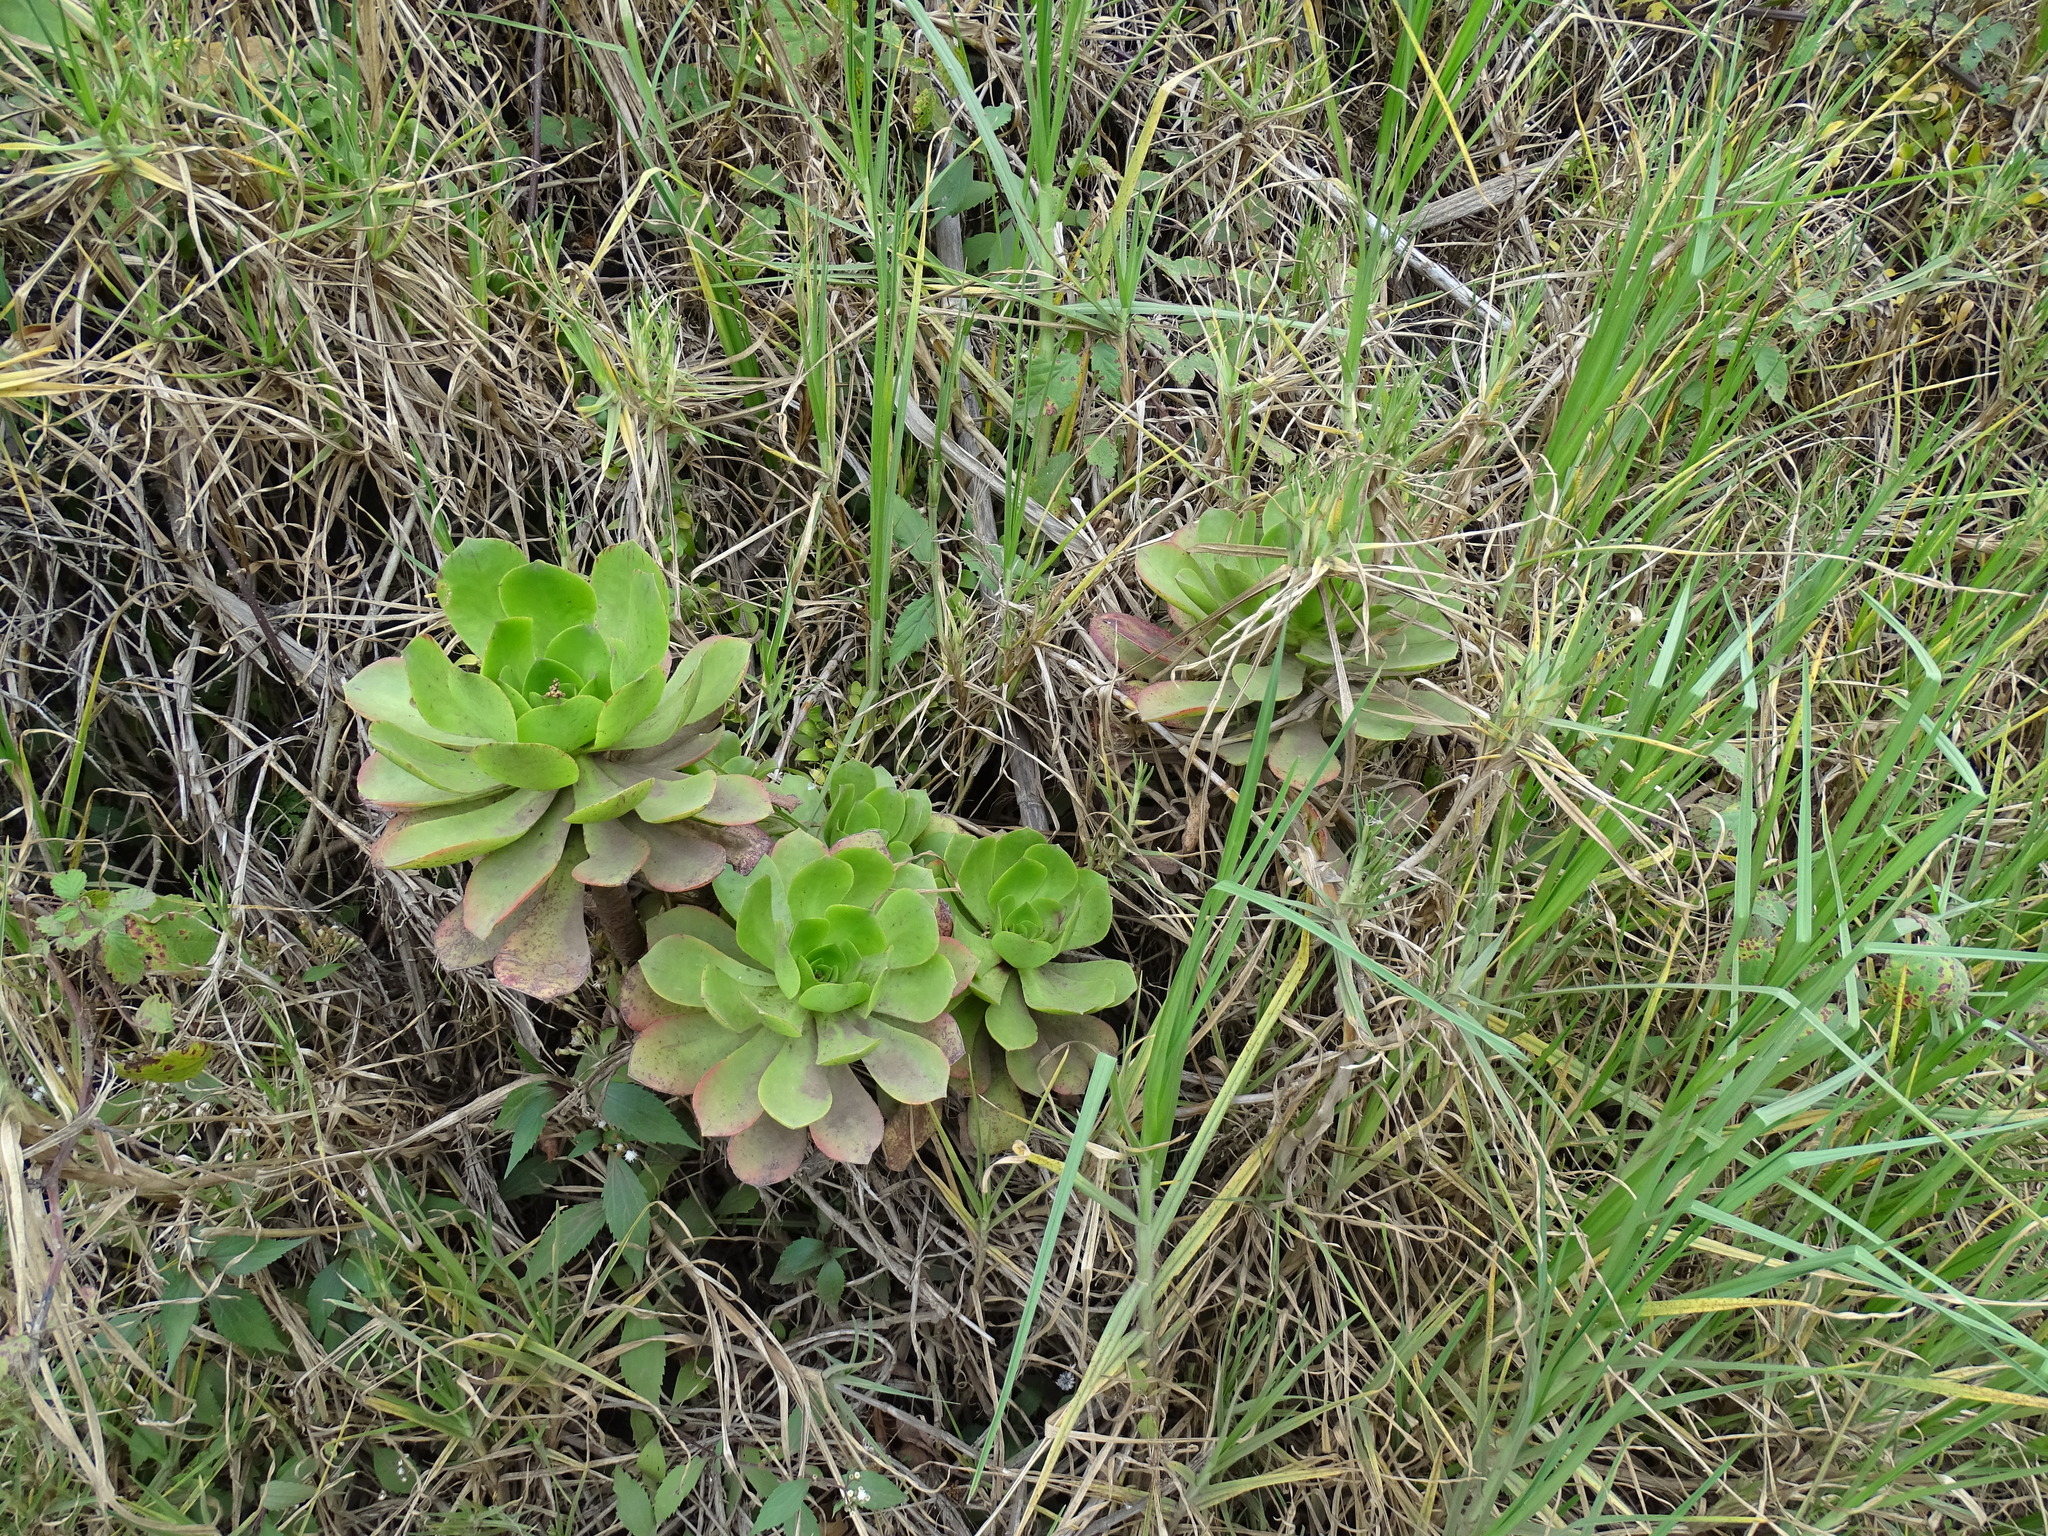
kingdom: Plantae
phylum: Tracheophyta
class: Magnoliopsida
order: Saxifragales
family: Crassulaceae
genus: Aeonium
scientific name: Aeonium glutinosum
